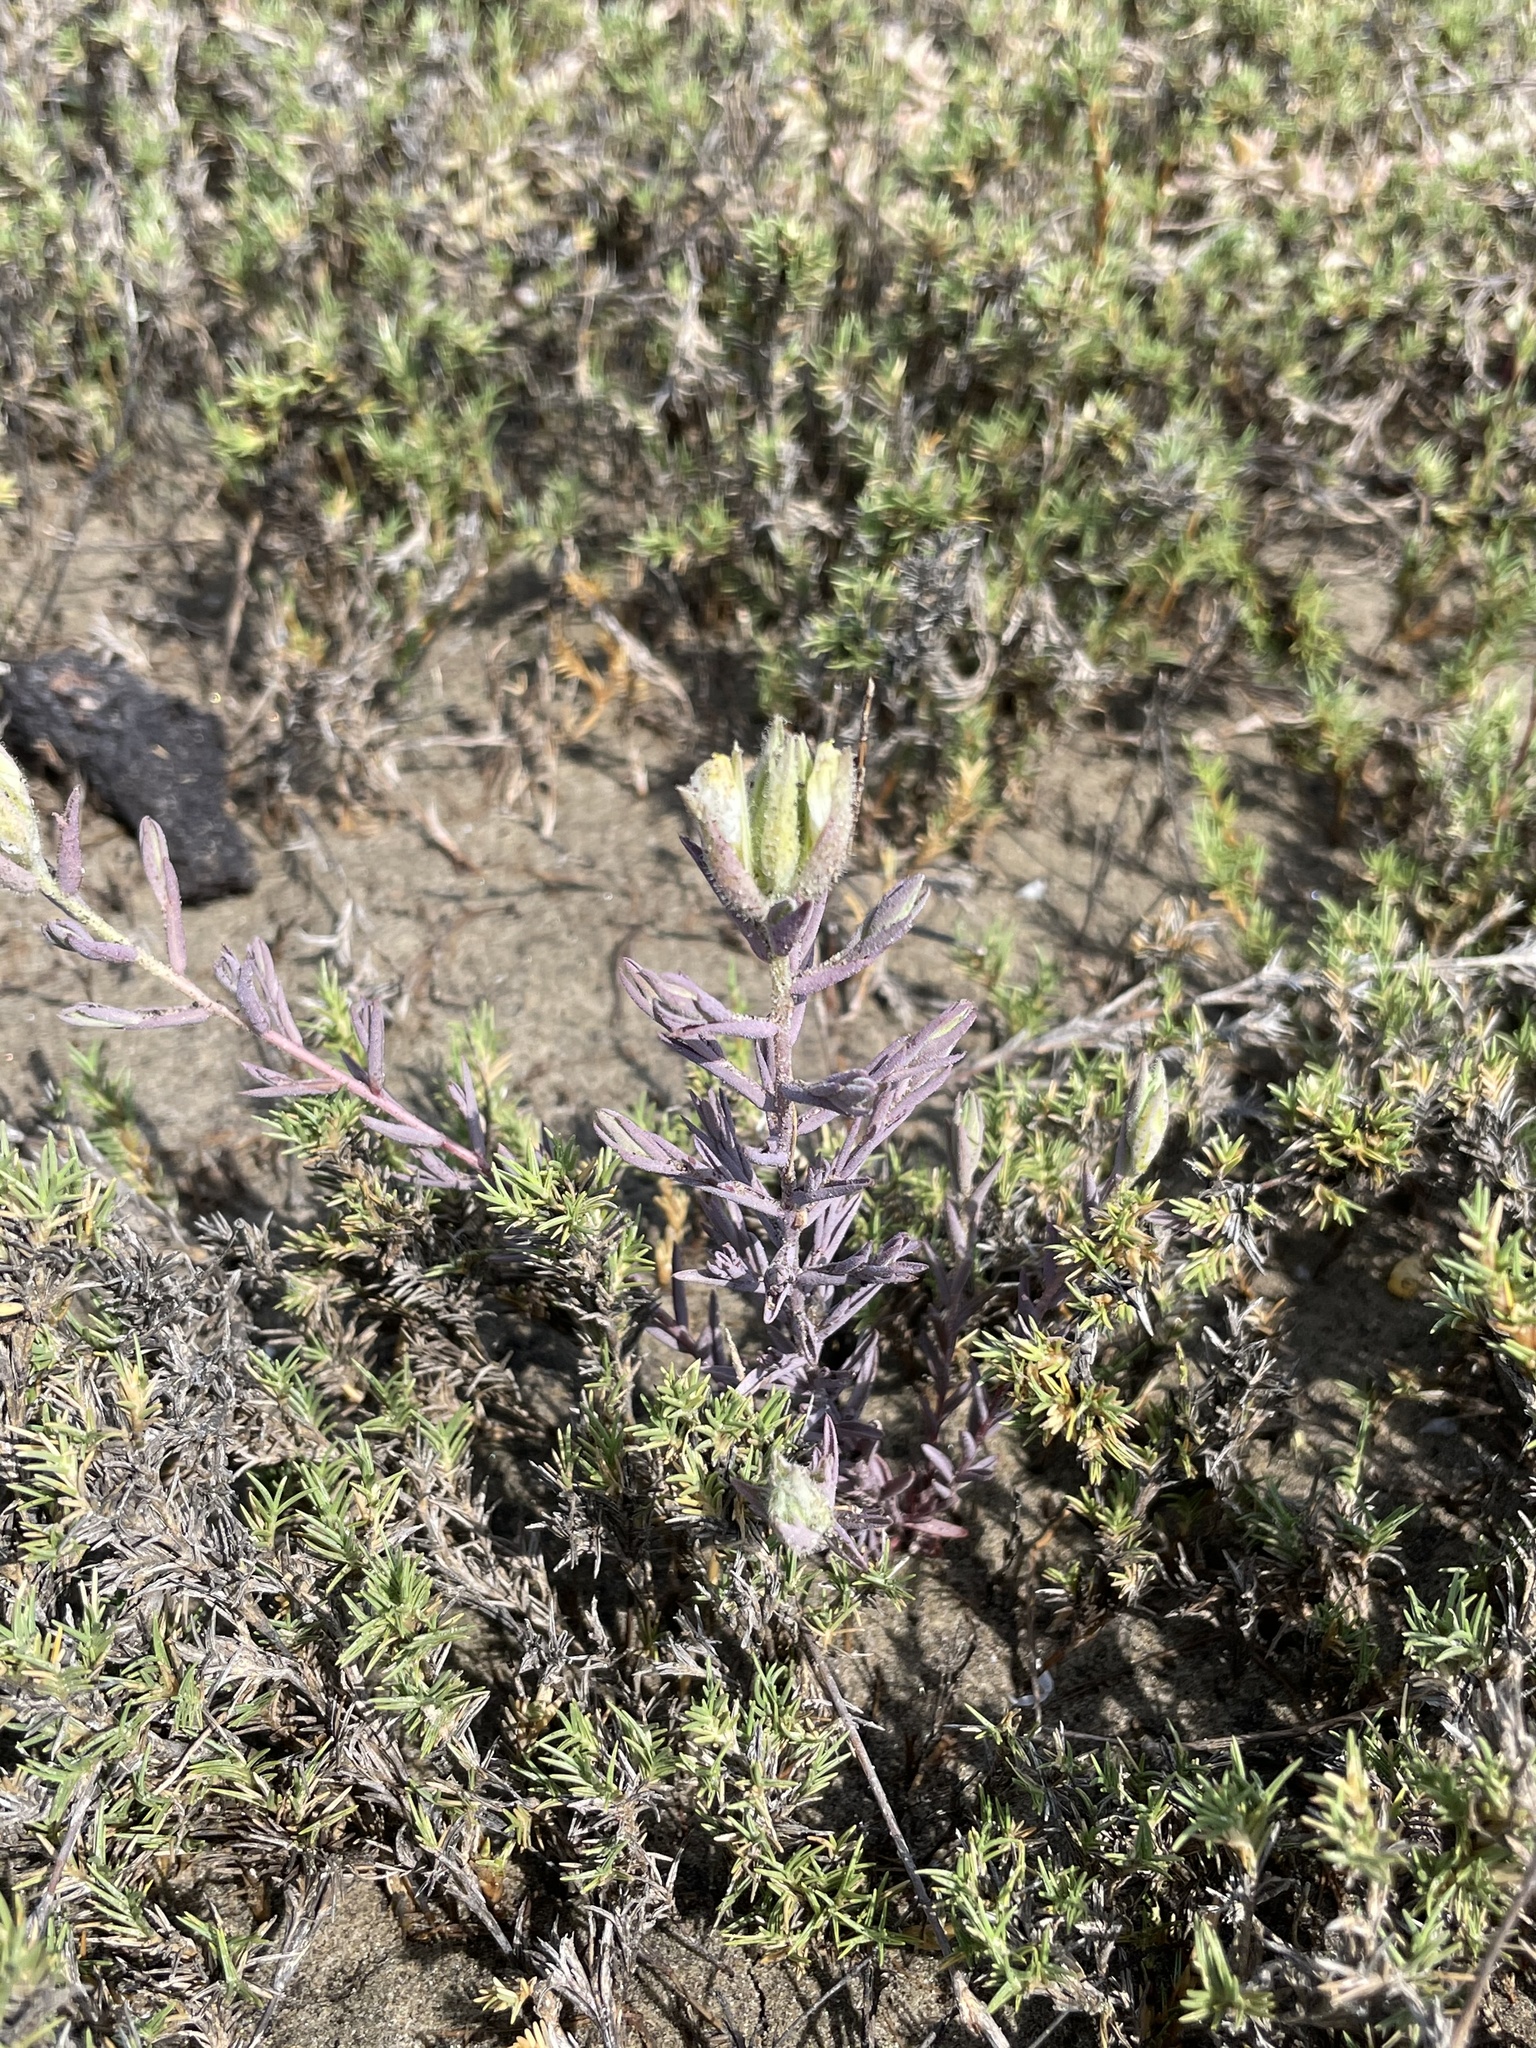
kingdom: Plantae
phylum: Tracheophyta
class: Magnoliopsida
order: Lamiales
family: Orobanchaceae
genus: Chloropyron
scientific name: Chloropyron maritimum
